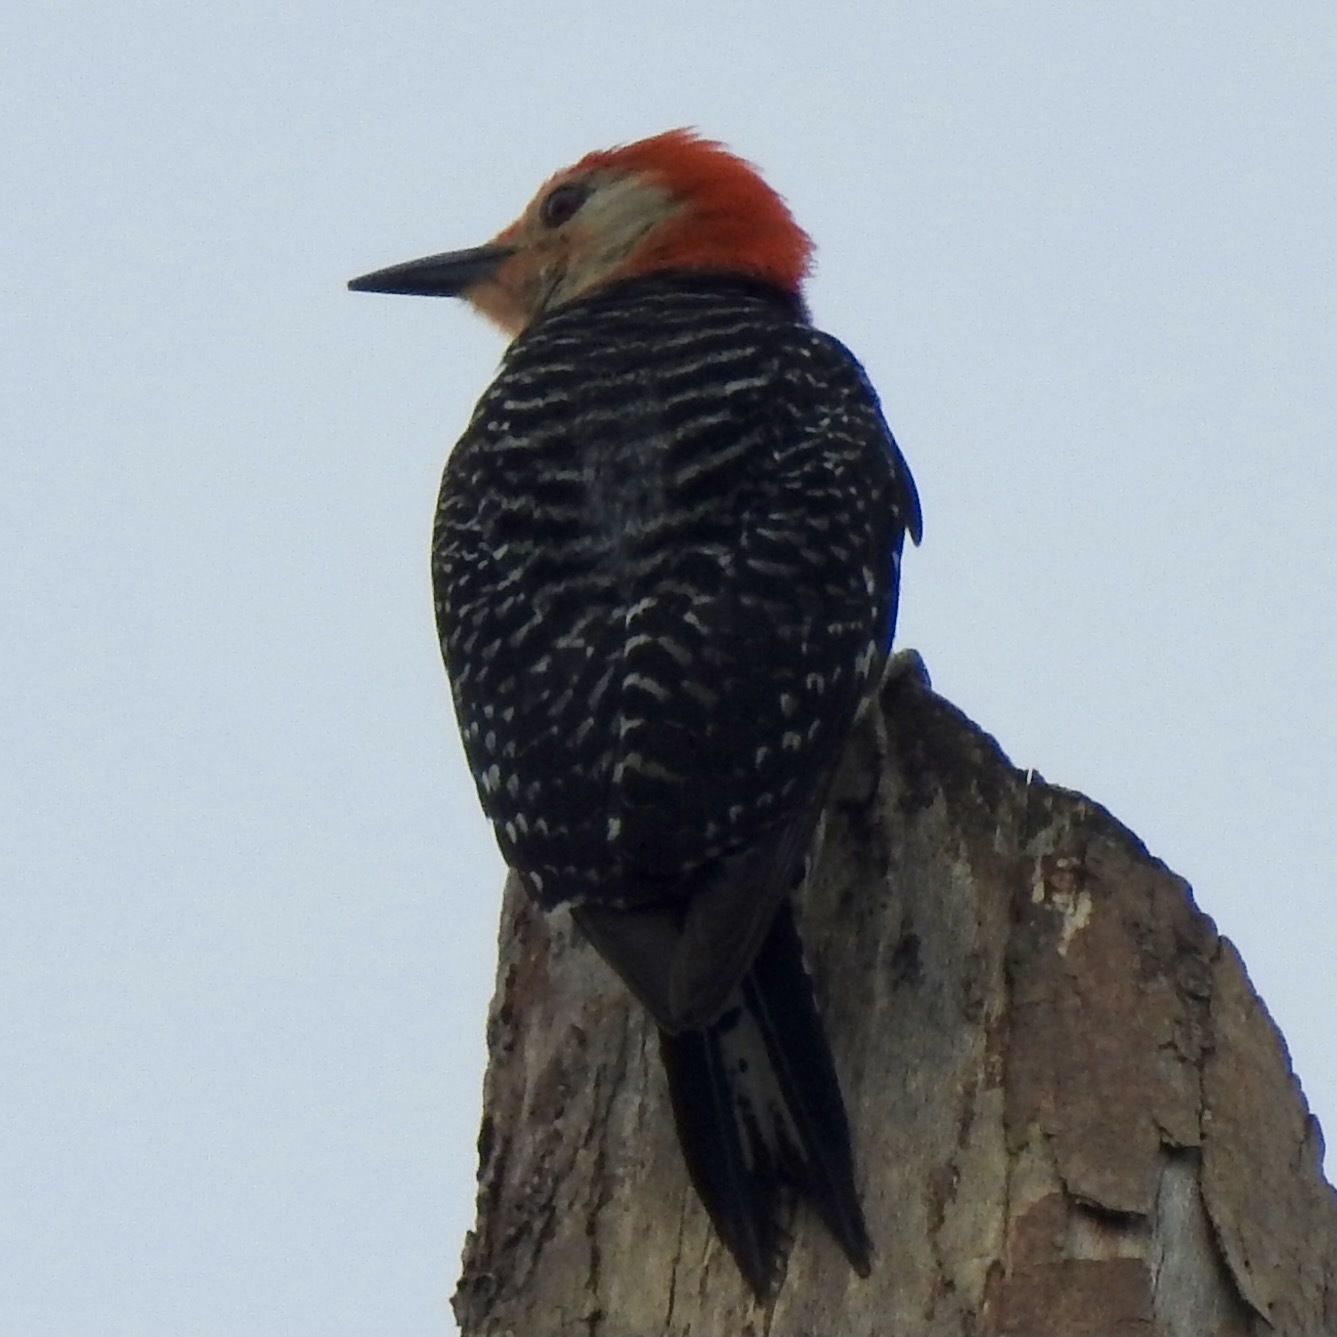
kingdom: Animalia
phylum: Chordata
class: Aves
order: Piciformes
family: Picidae
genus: Melanerpes
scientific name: Melanerpes carolinus
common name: Red-bellied woodpecker
